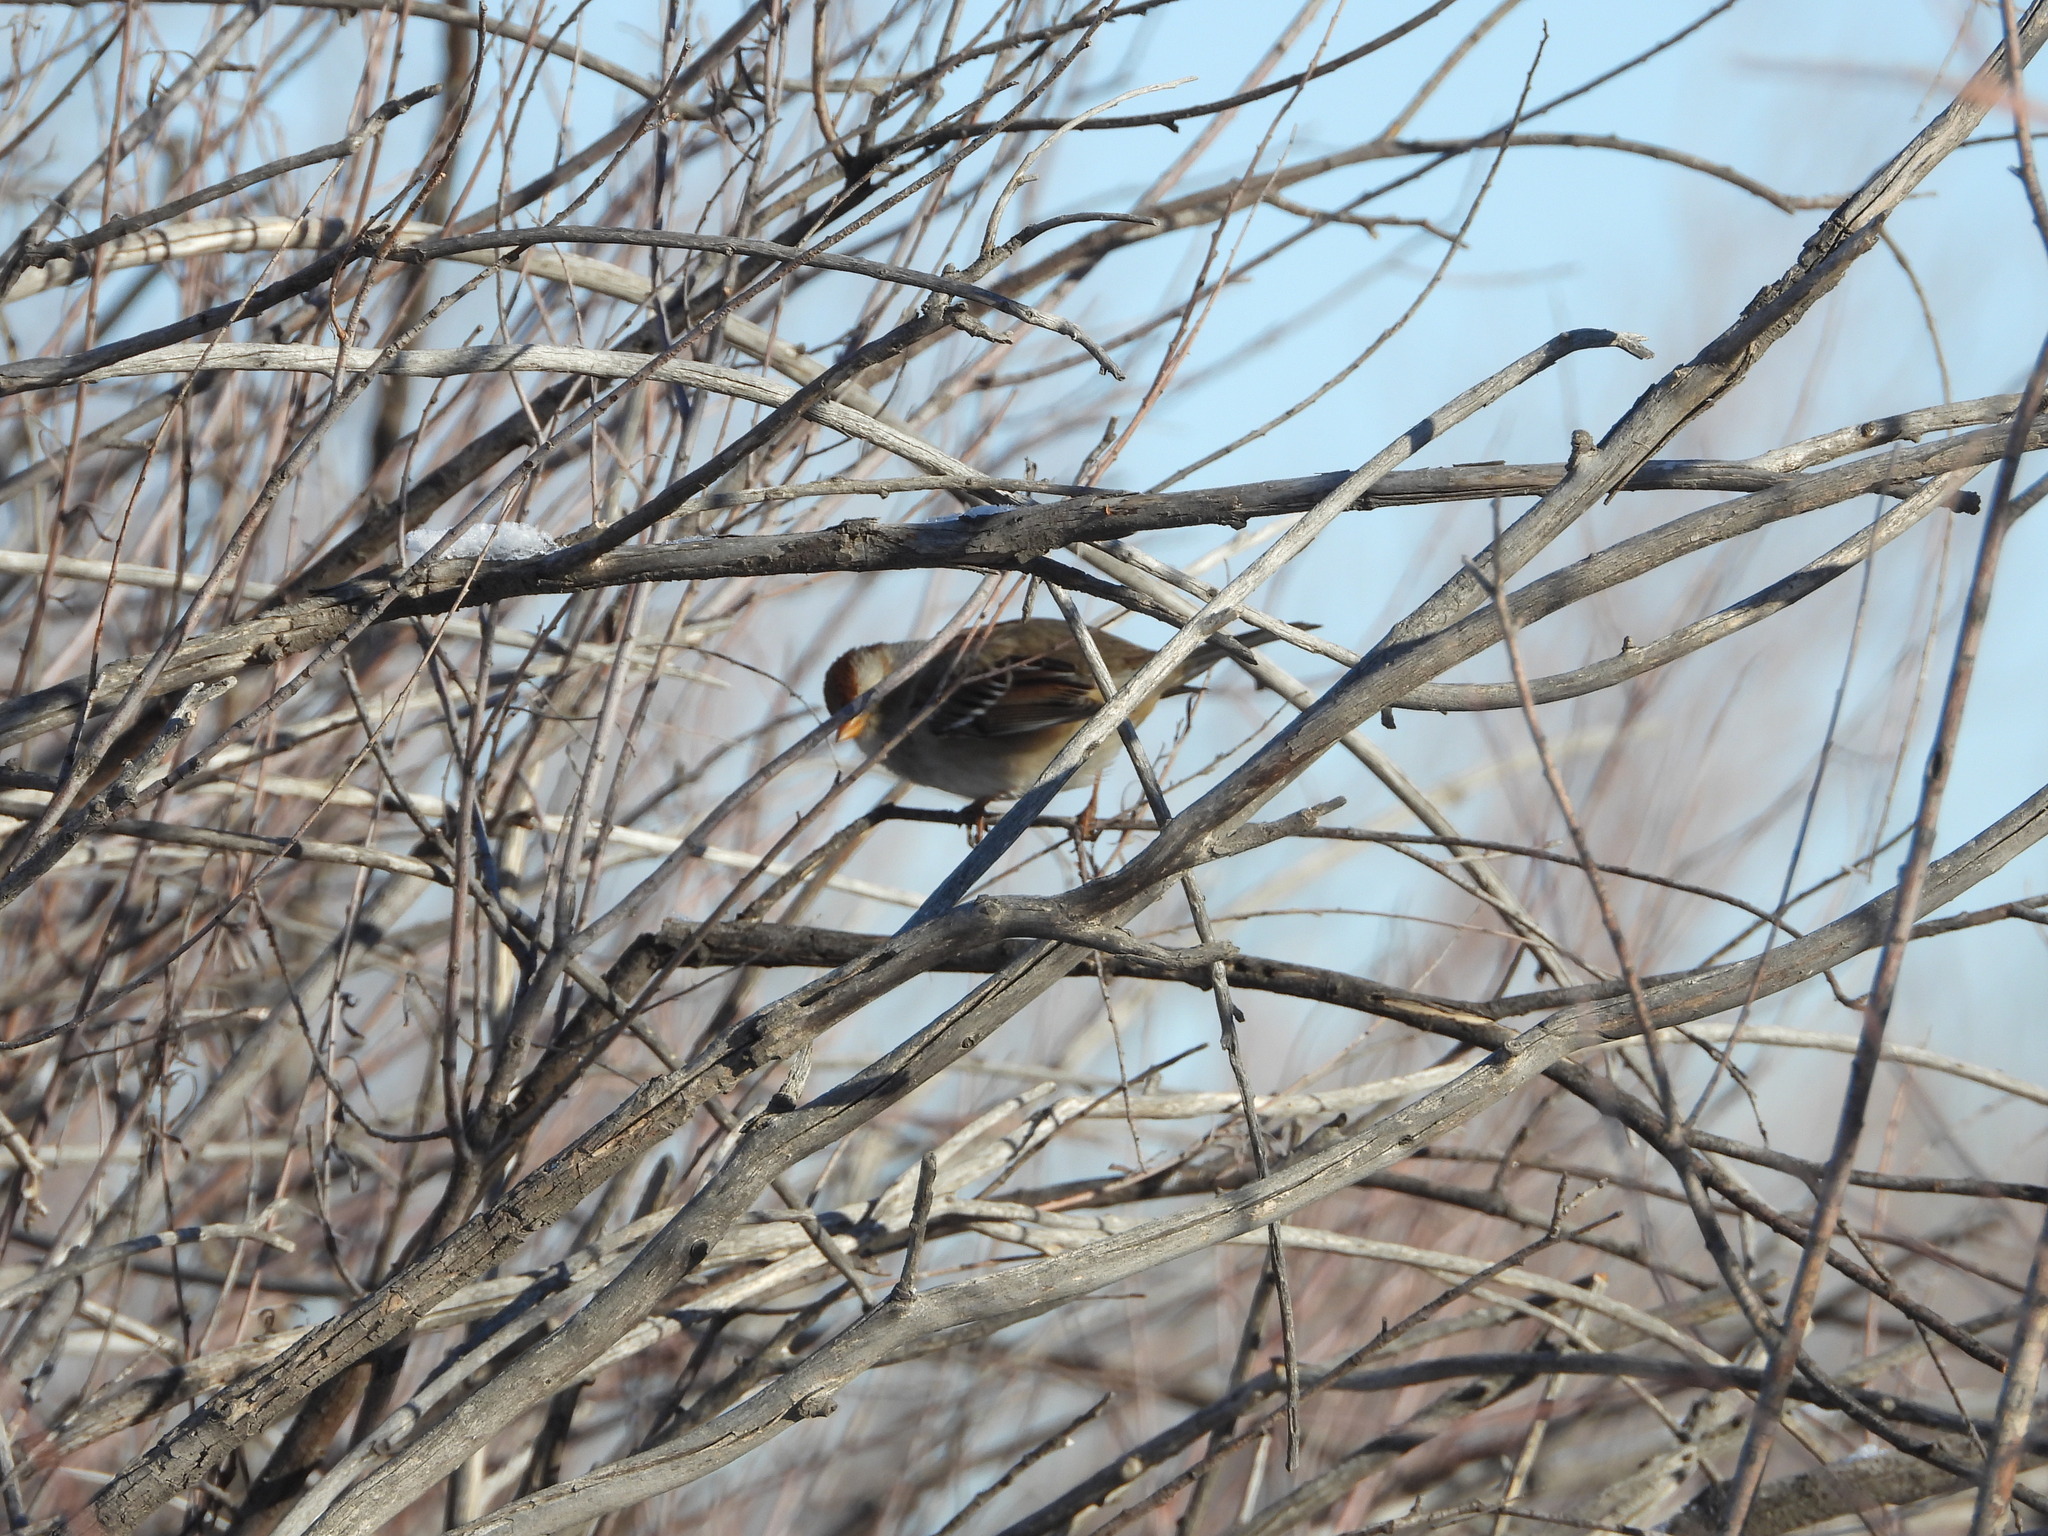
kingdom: Animalia
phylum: Chordata
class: Aves
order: Passeriformes
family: Passerellidae
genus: Zonotrichia
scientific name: Zonotrichia leucophrys
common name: White-crowned sparrow
